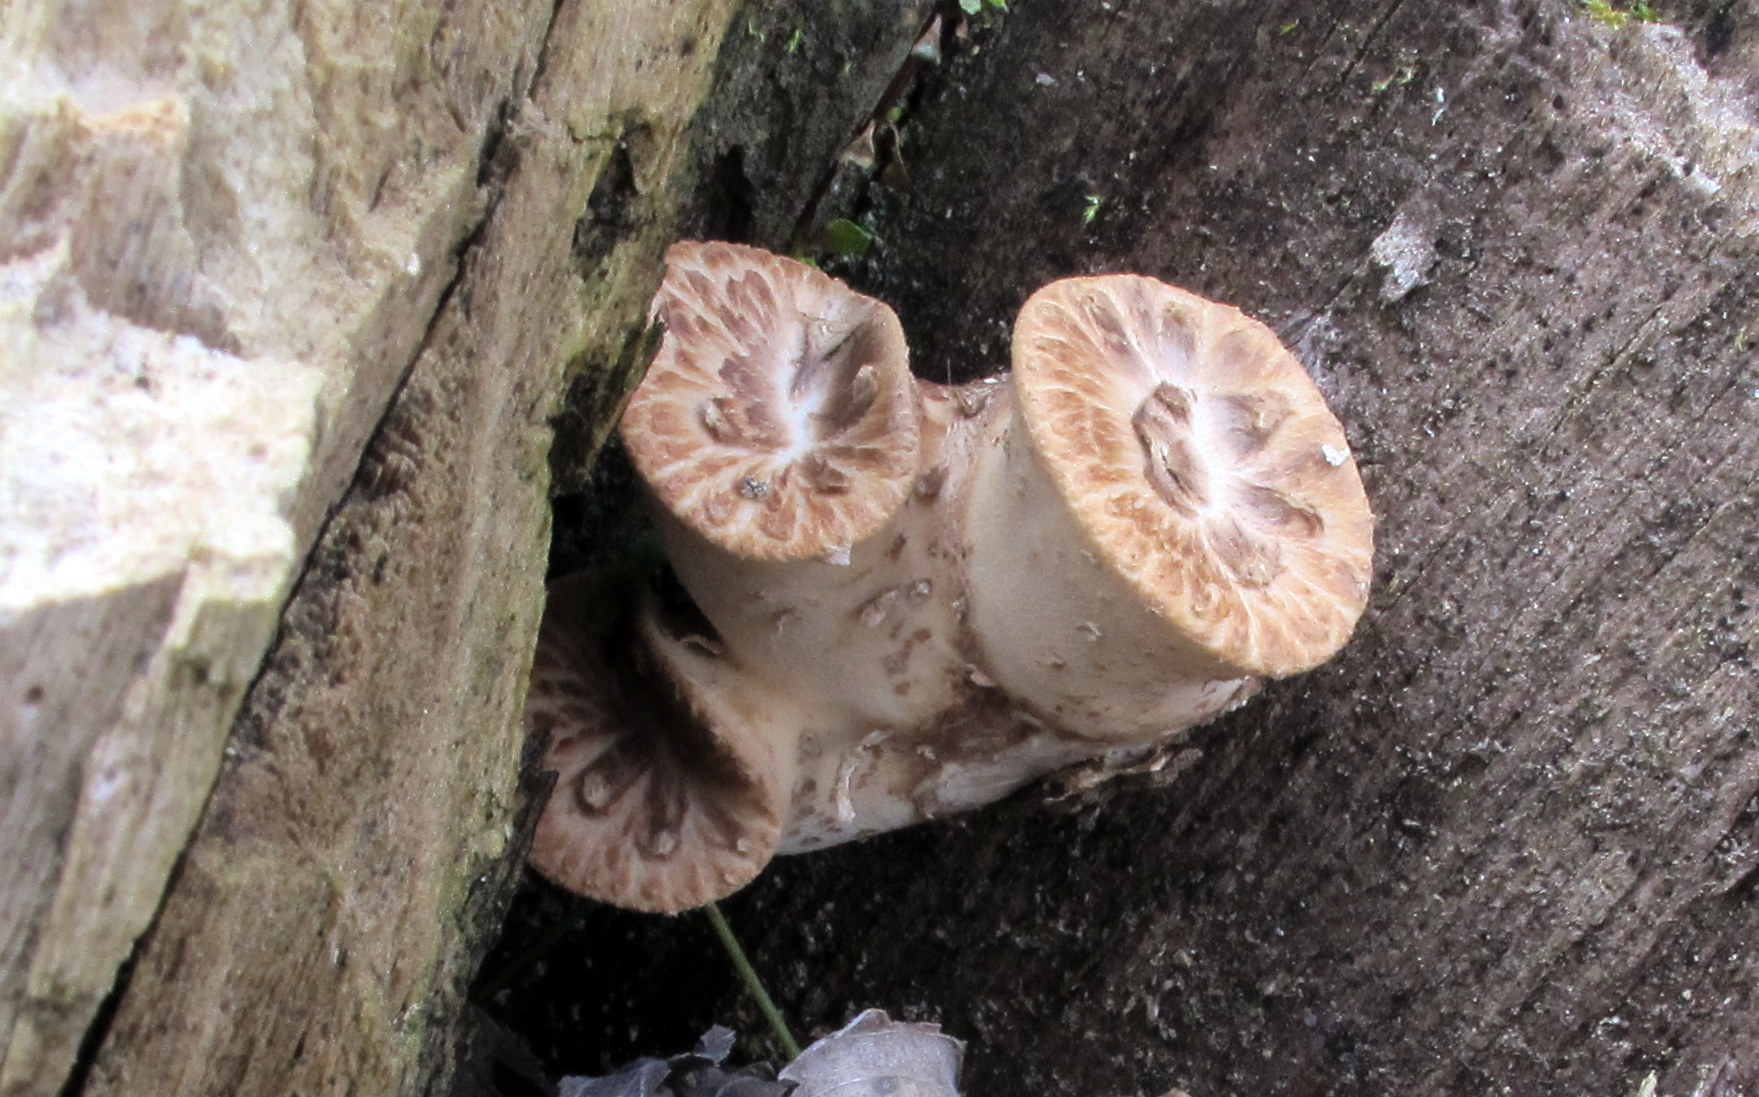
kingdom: Fungi
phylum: Basidiomycota
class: Agaricomycetes
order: Polyporales
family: Polyporaceae
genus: Cerioporus
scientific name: Cerioporus squamosus
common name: Dryad's saddle
